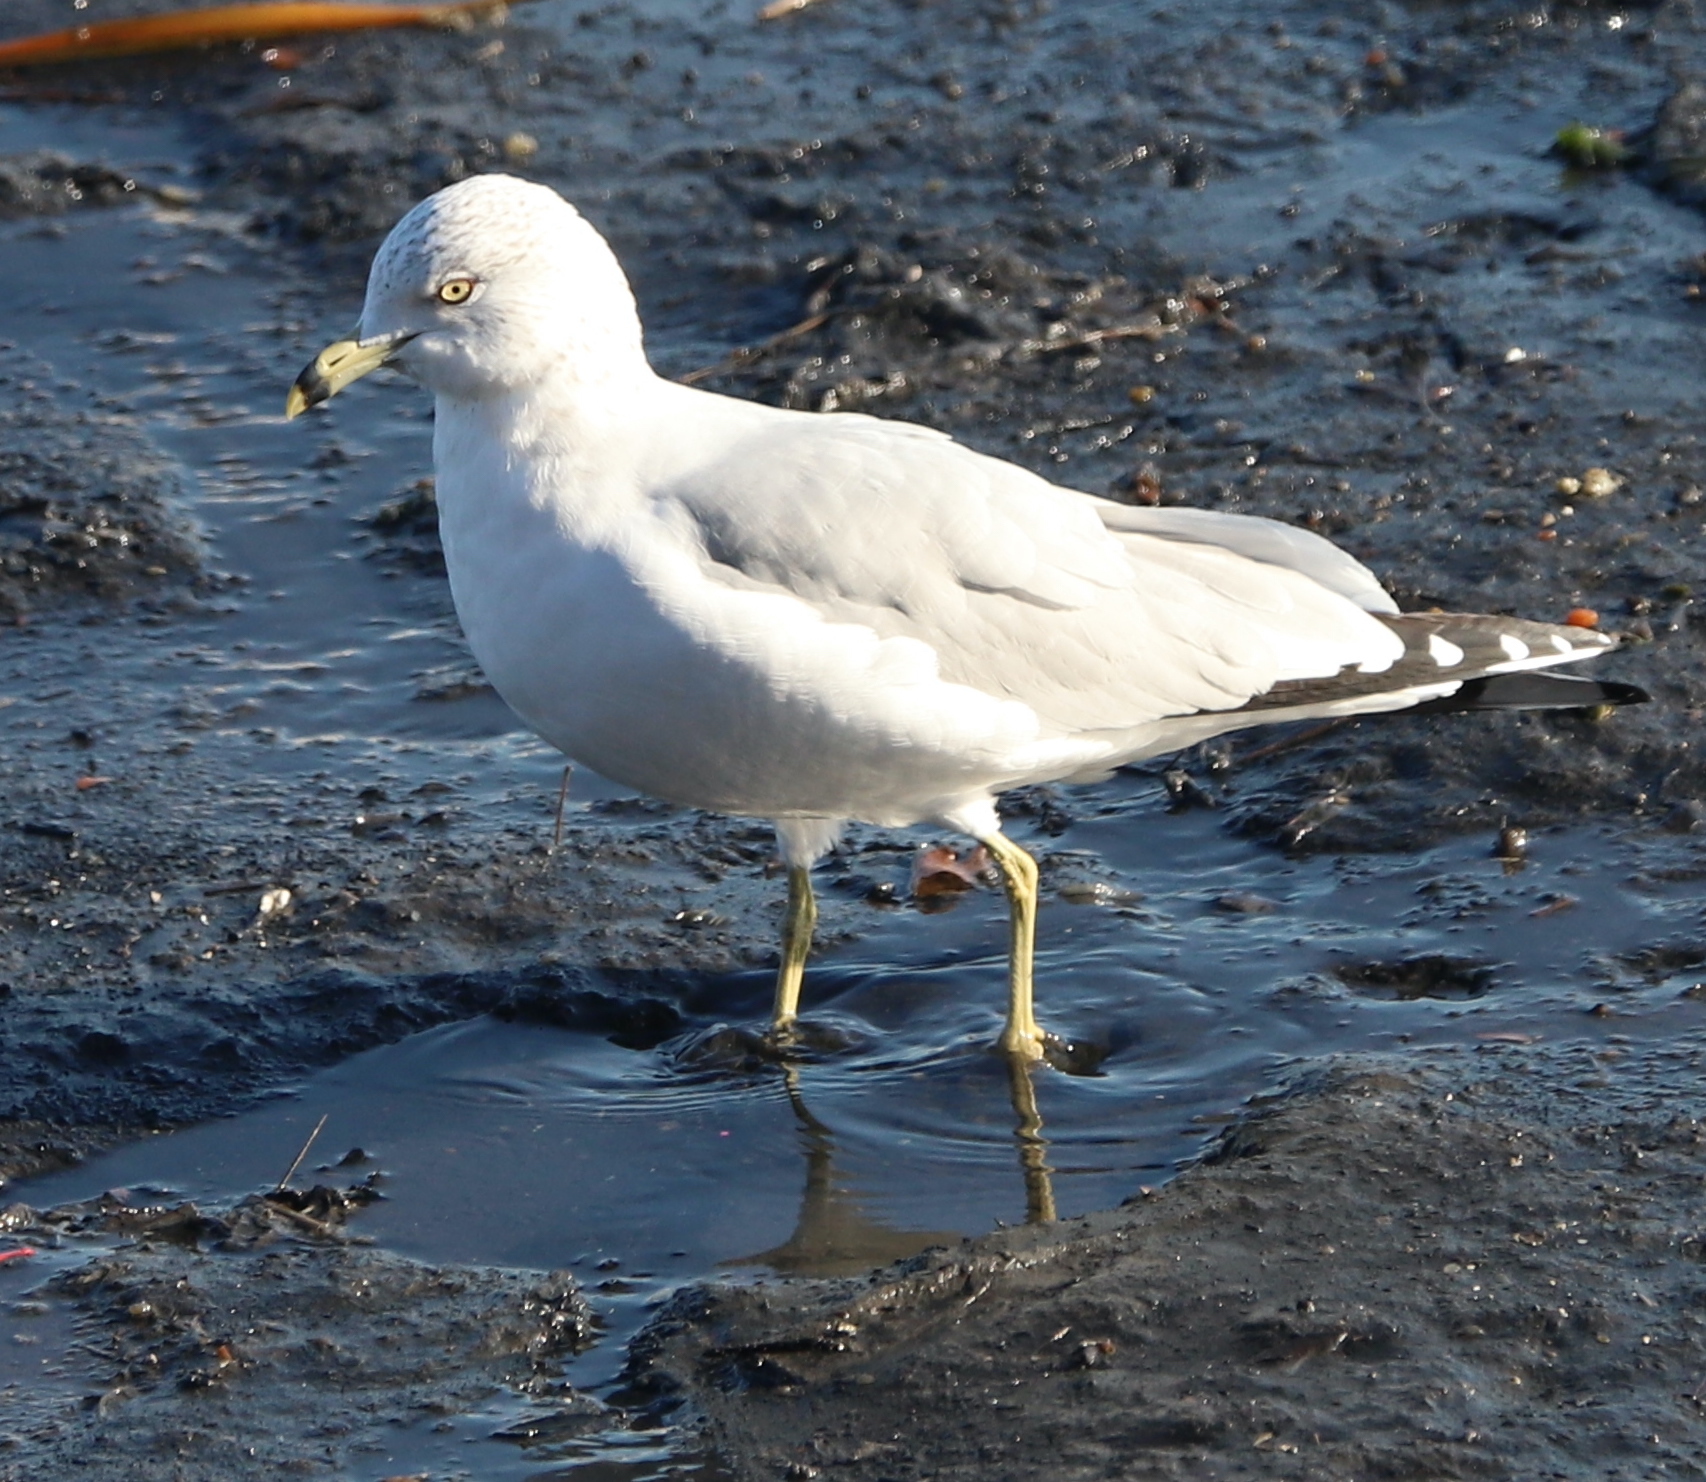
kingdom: Animalia
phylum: Chordata
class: Aves
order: Charadriiformes
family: Laridae
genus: Larus
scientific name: Larus delawarensis
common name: Ring-billed gull
